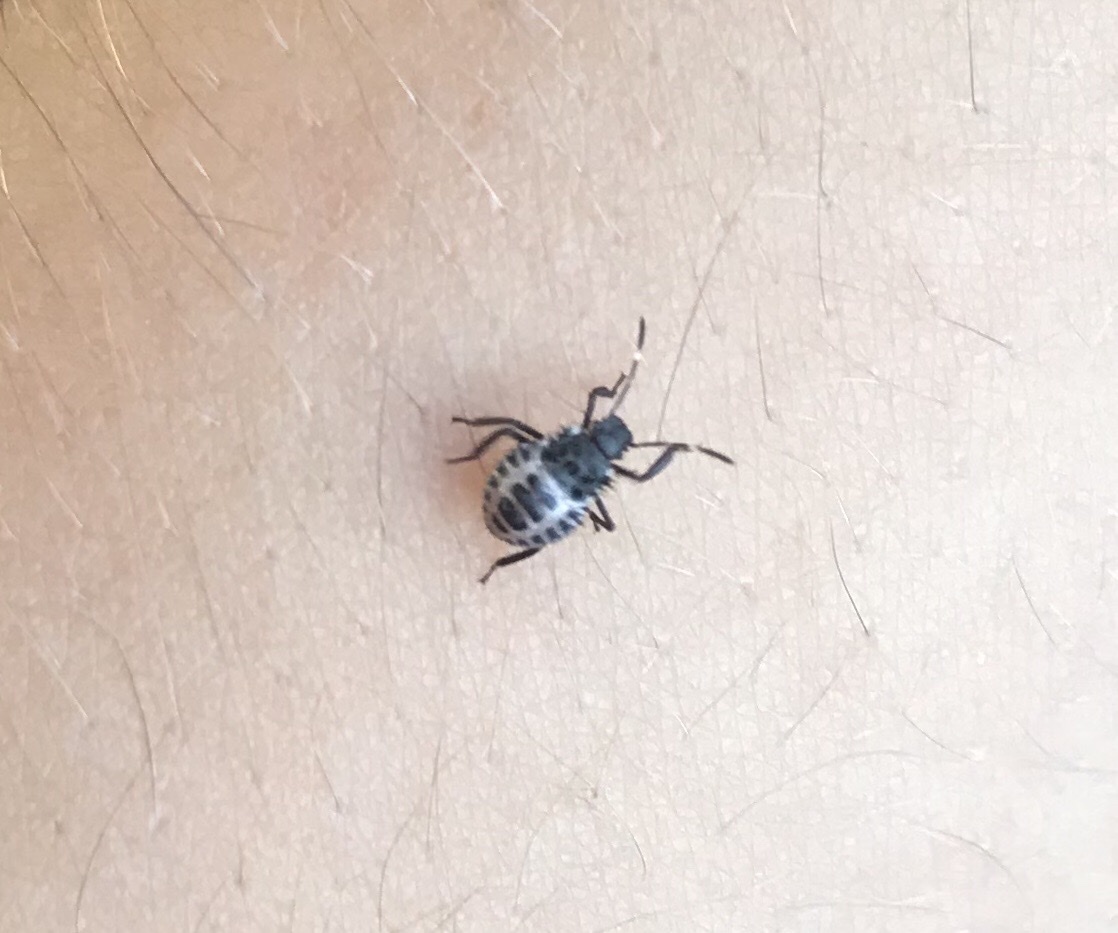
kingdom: Animalia
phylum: Arthropoda
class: Insecta
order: Hemiptera
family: Pentatomidae
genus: Halyomorpha
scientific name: Halyomorpha halys
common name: Brown marmorated stink bug
